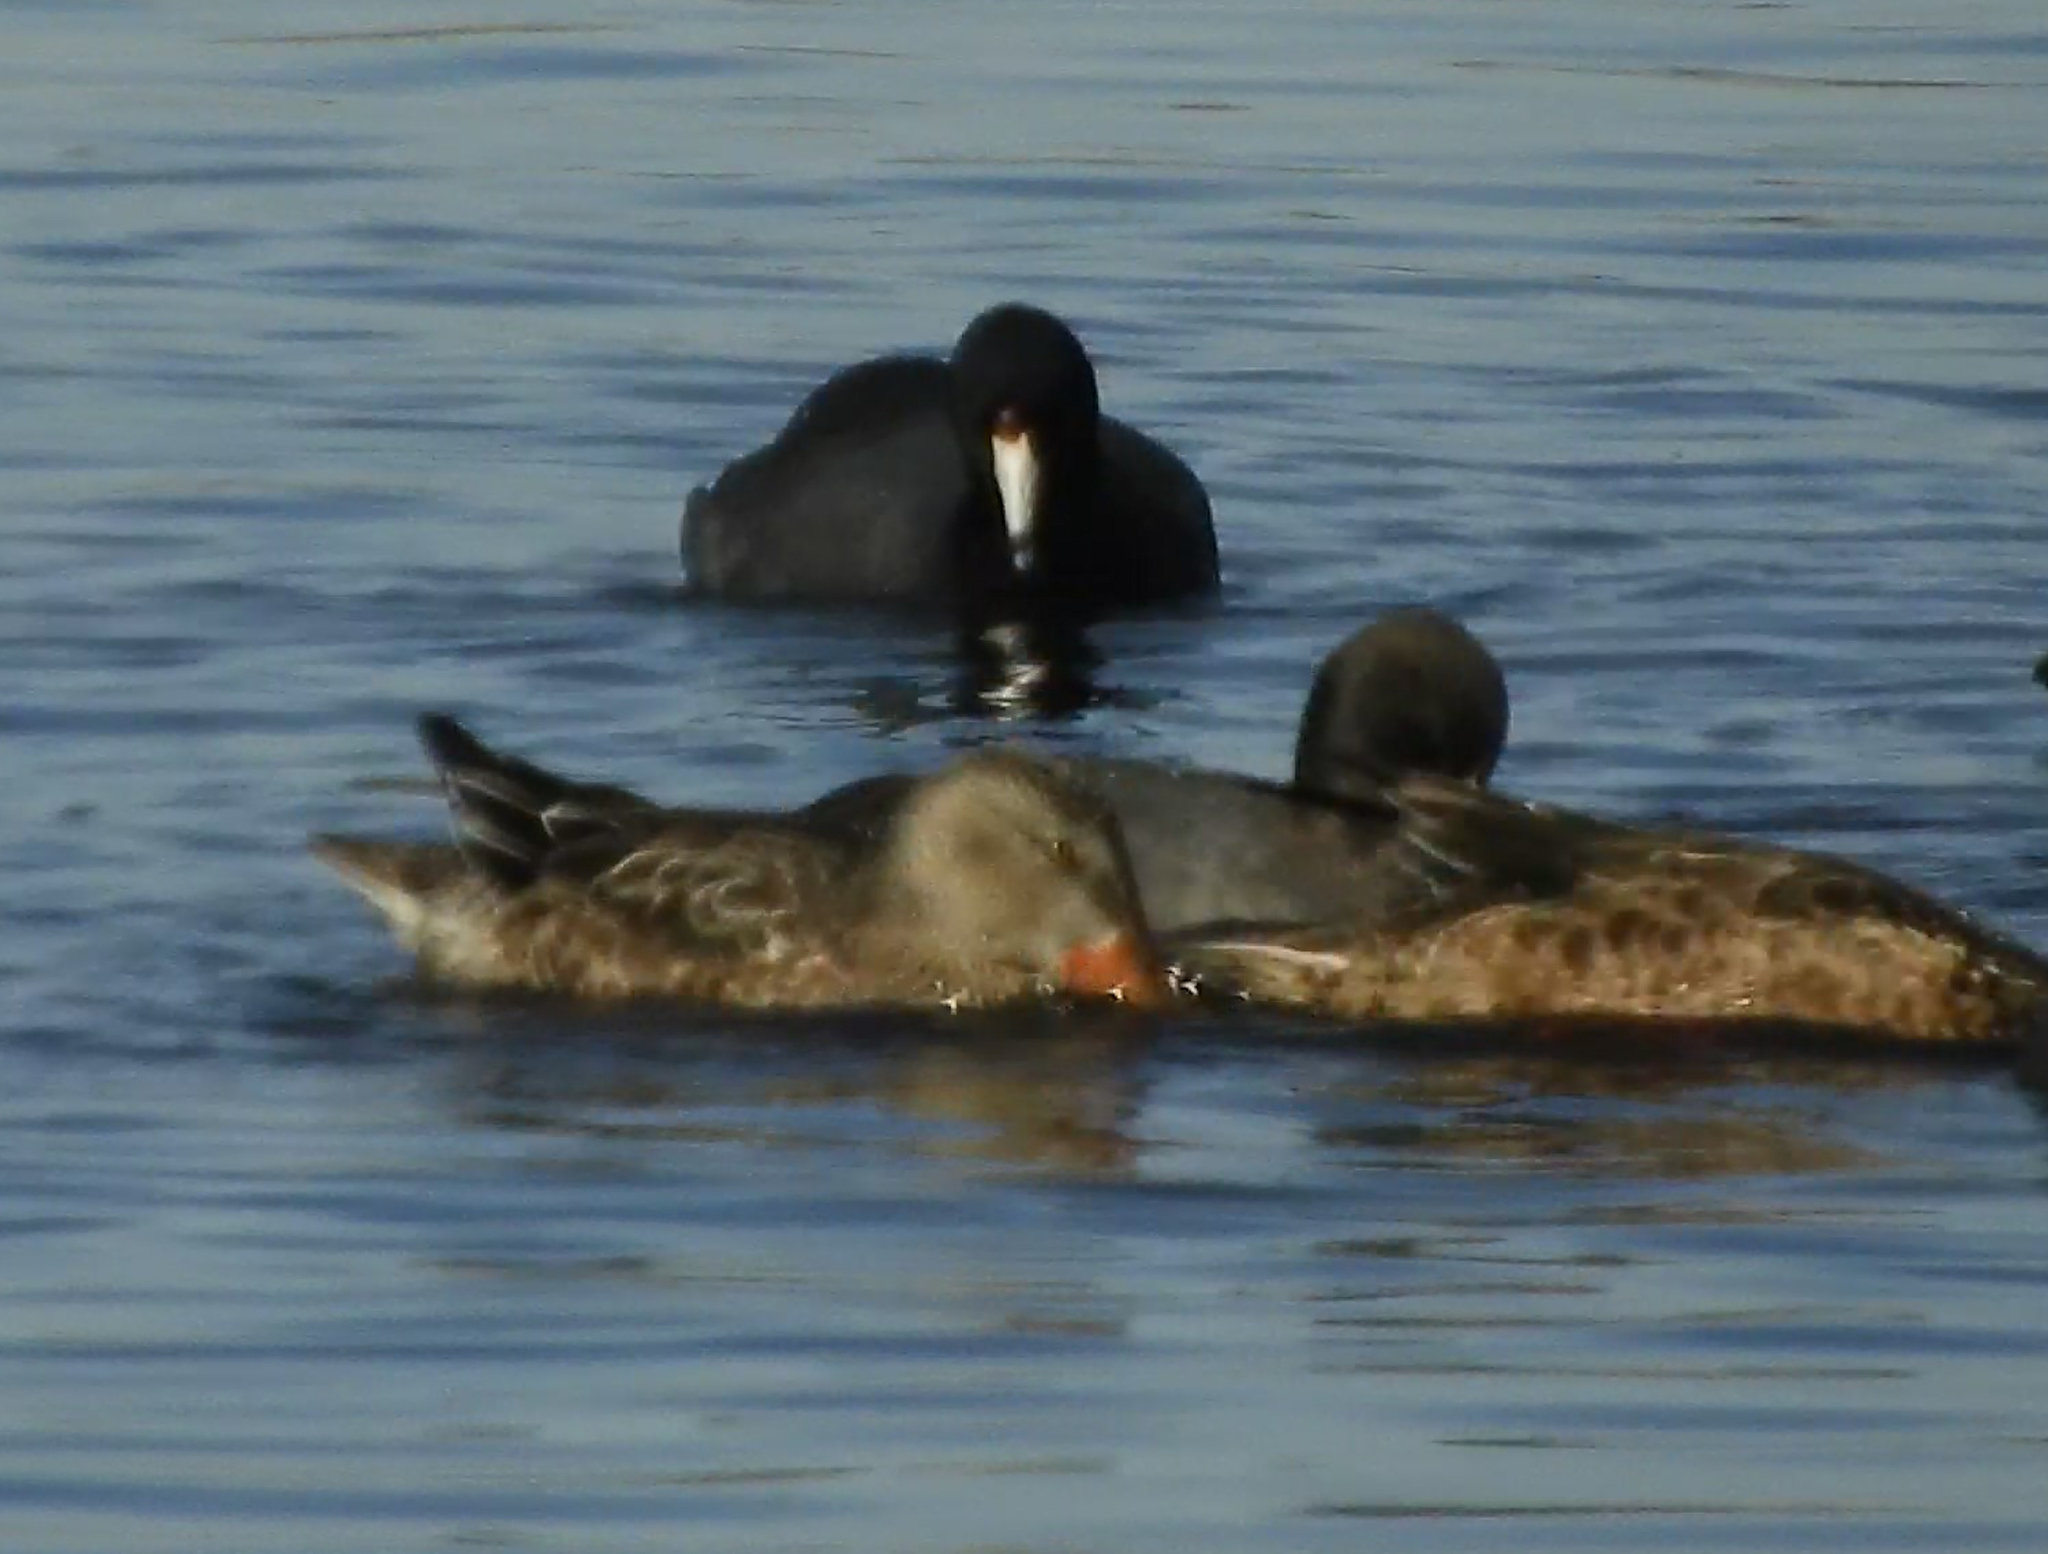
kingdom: Animalia
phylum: Chordata
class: Aves
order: Gruiformes
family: Rallidae
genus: Fulica
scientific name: Fulica americana
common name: American coot
